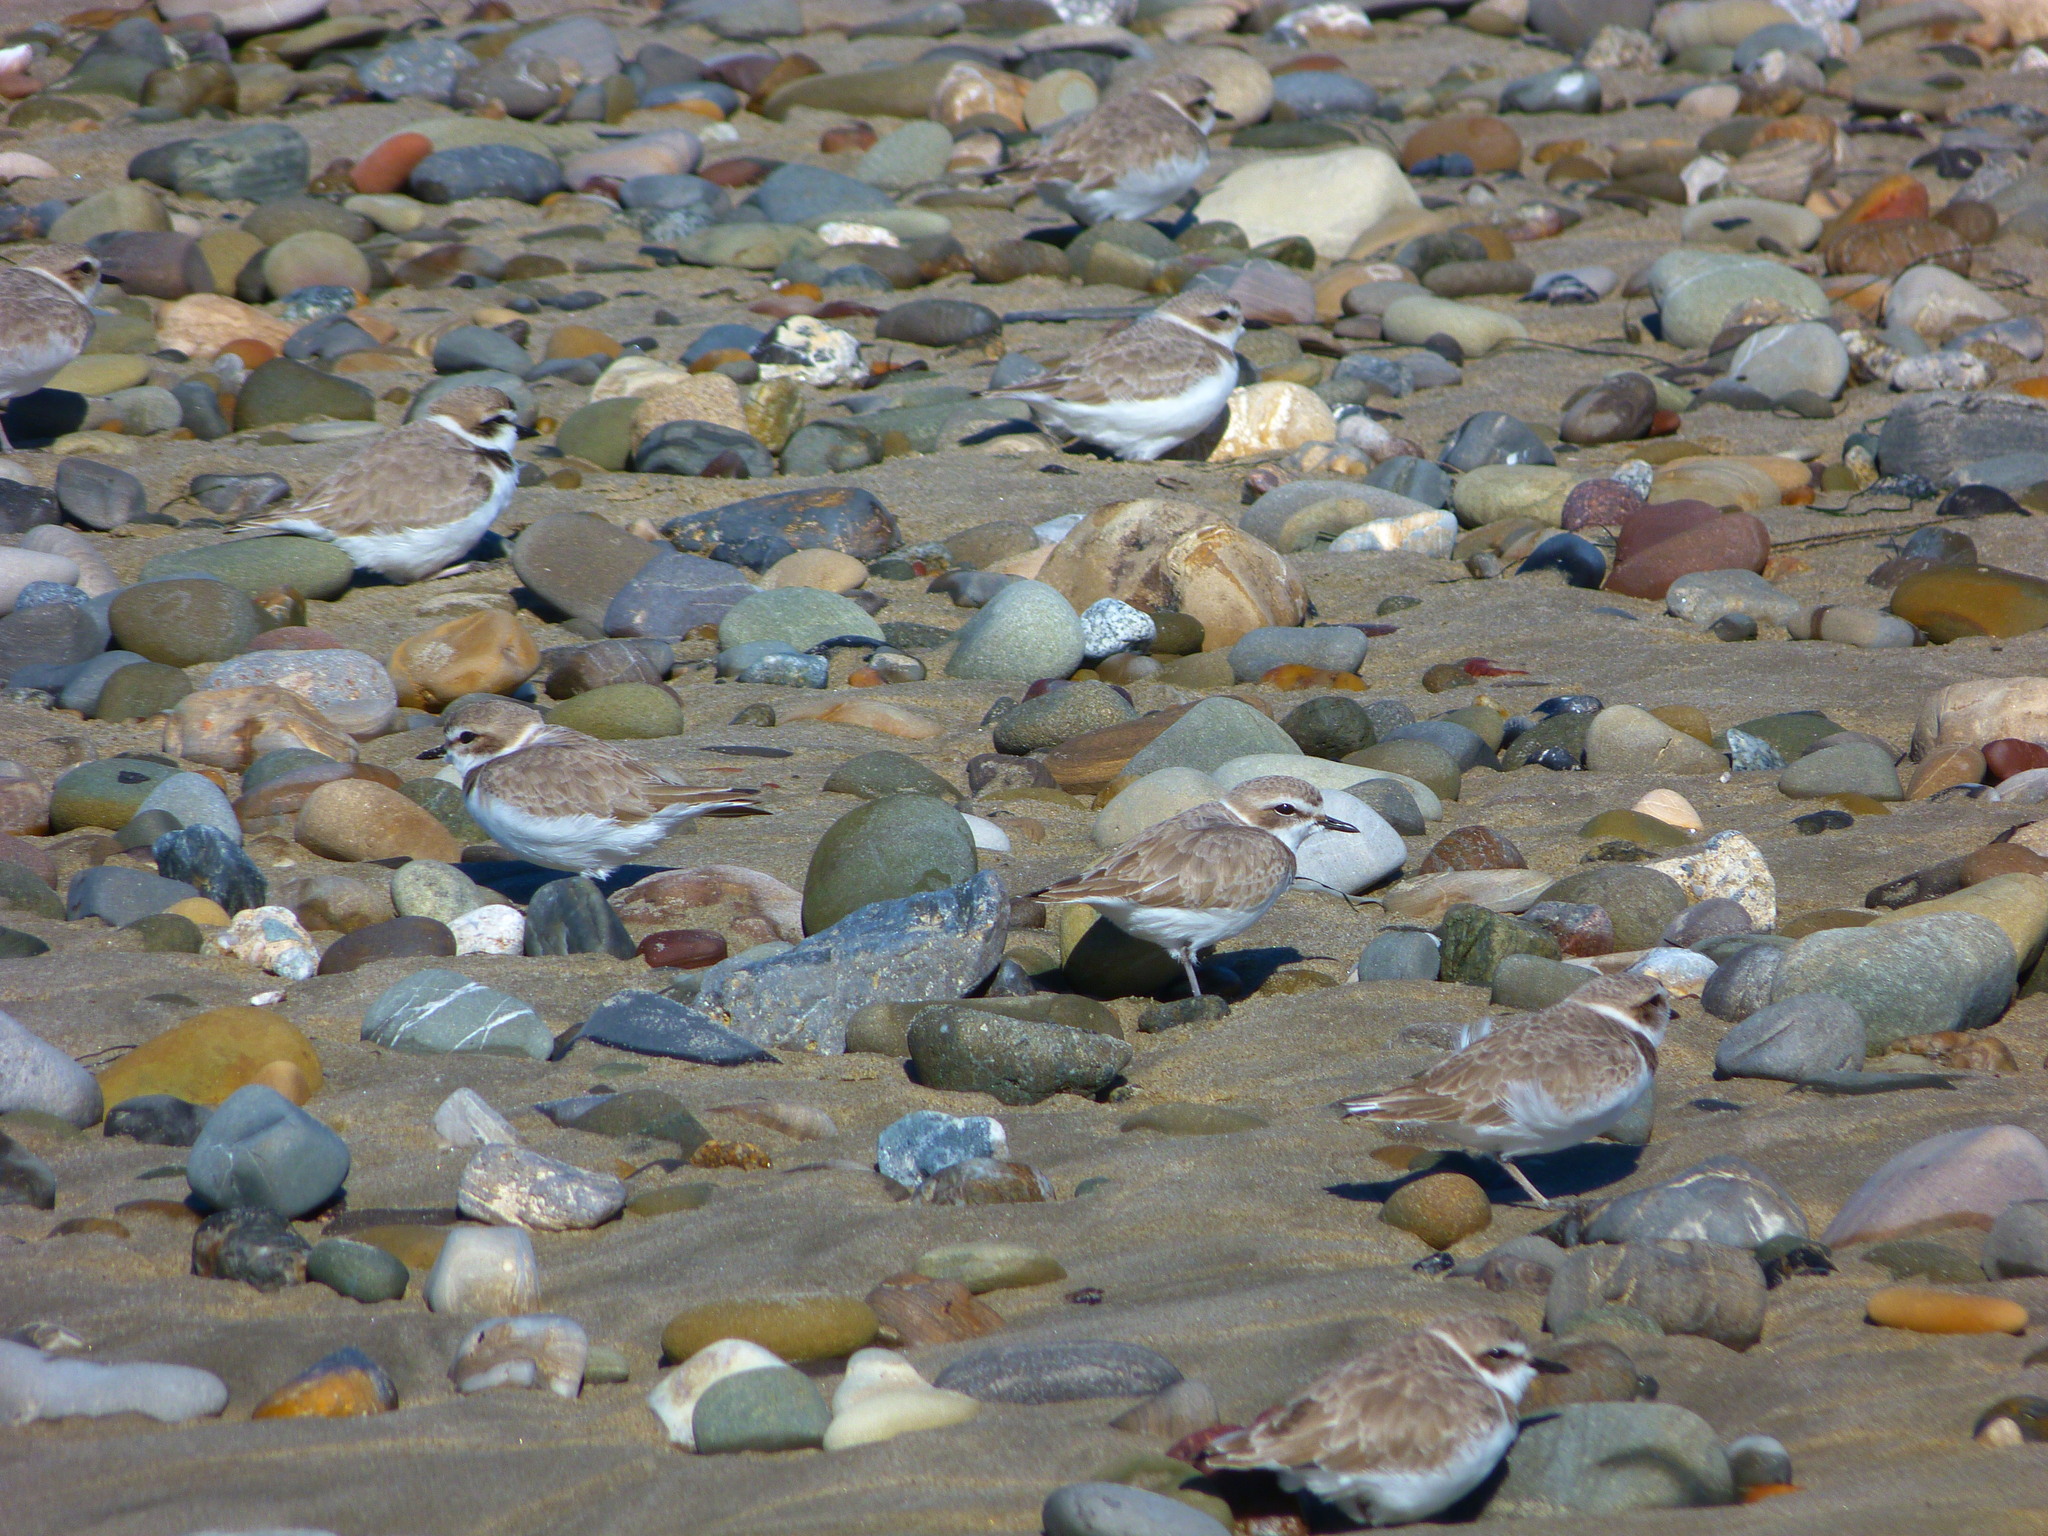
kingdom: Animalia
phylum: Chordata
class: Aves
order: Charadriiformes
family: Charadriidae
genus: Anarhynchus
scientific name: Anarhynchus
